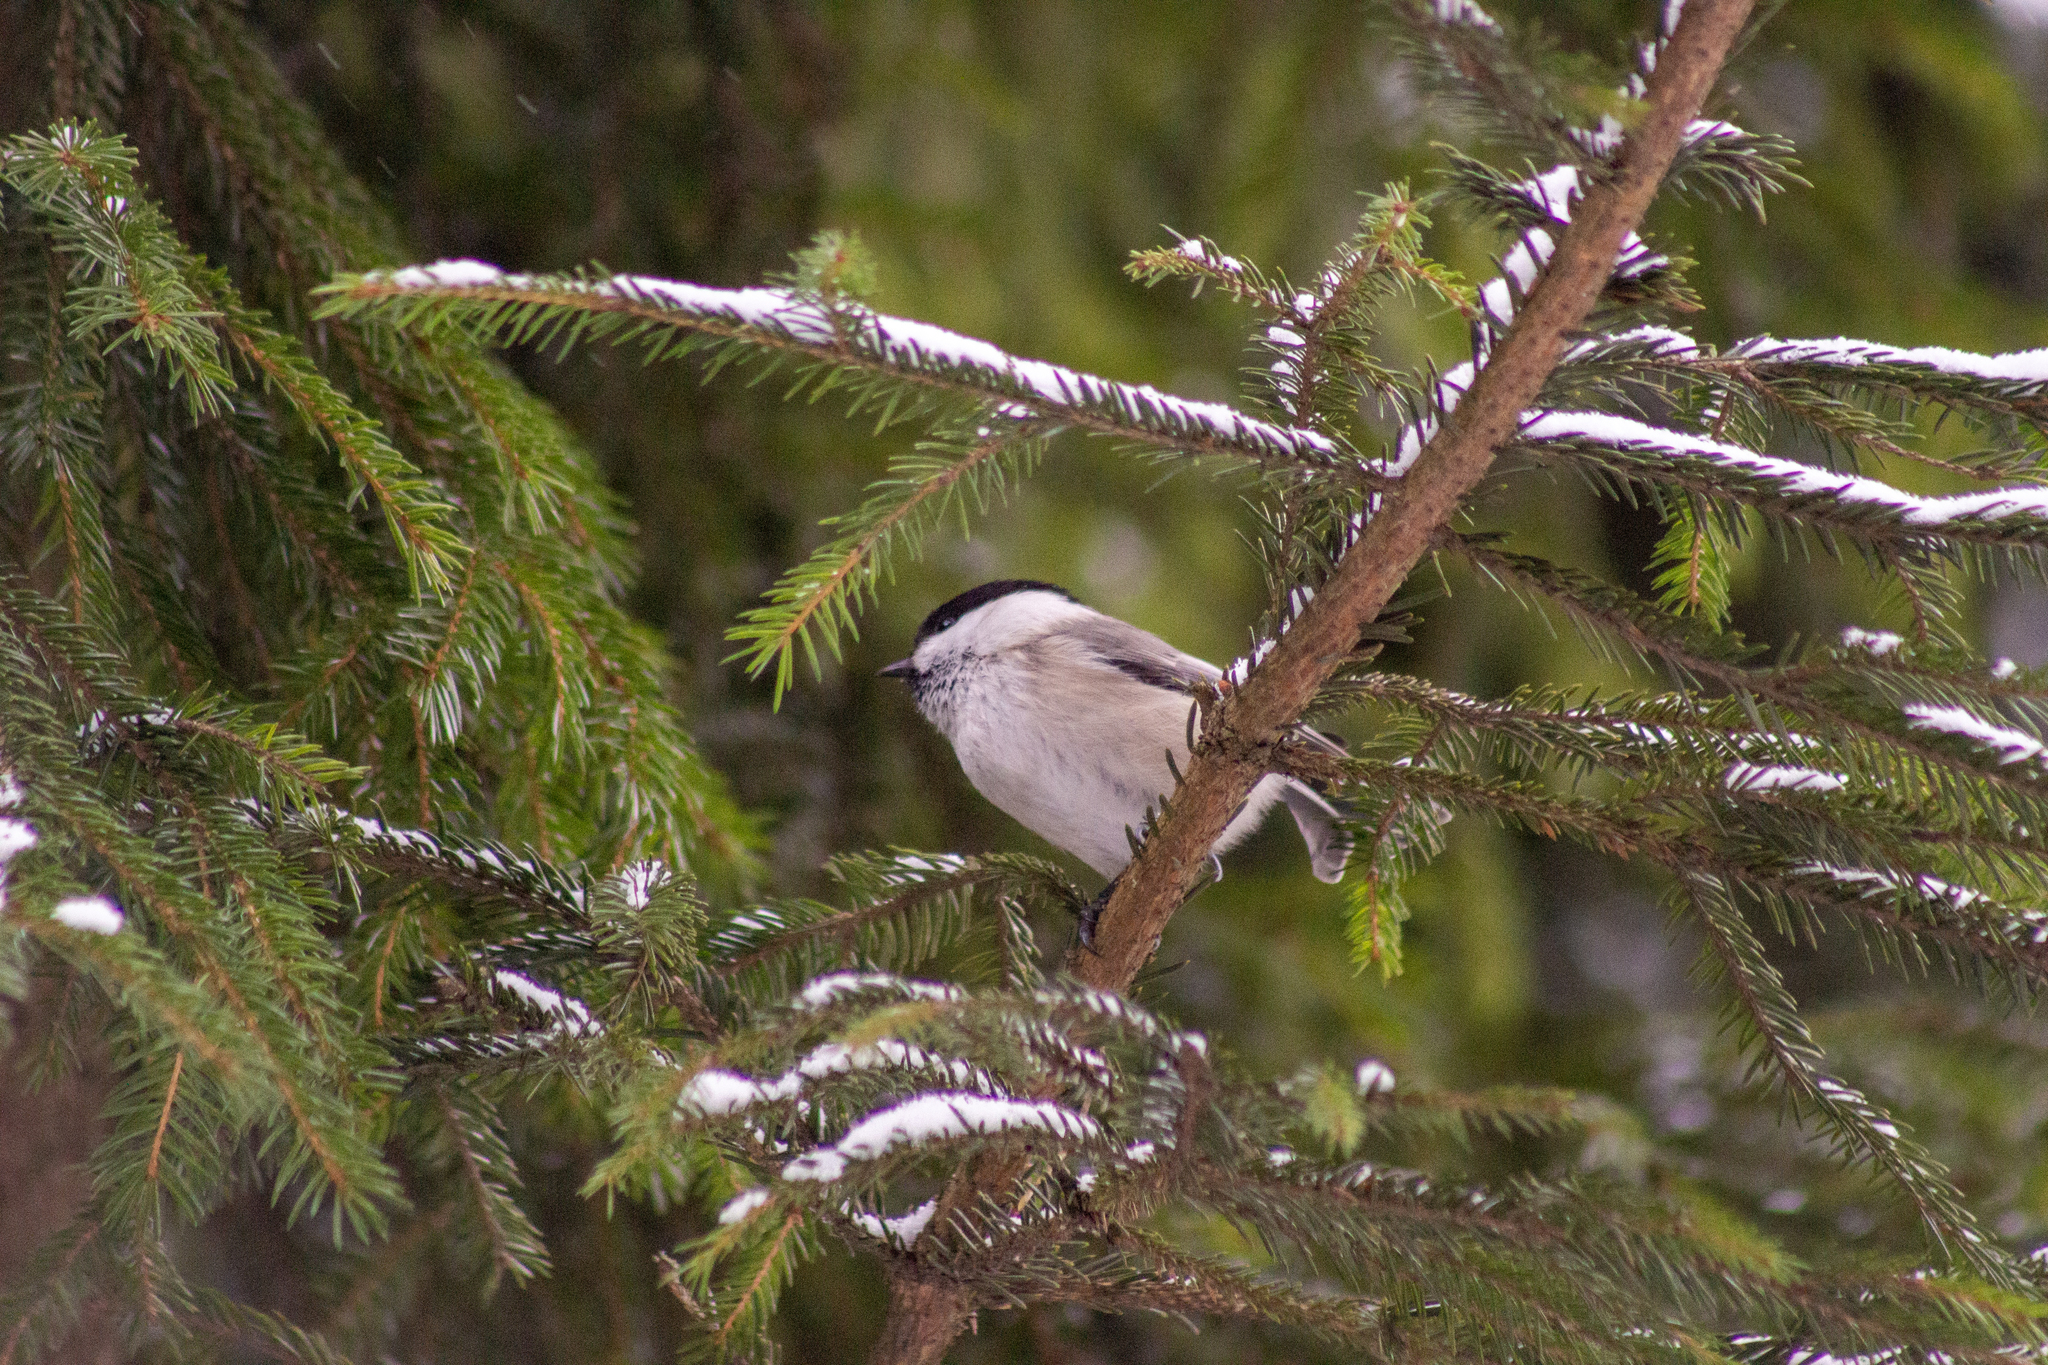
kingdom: Animalia
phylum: Chordata
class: Aves
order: Passeriformes
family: Paridae
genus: Poecile
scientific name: Poecile montanus
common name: Willow tit
